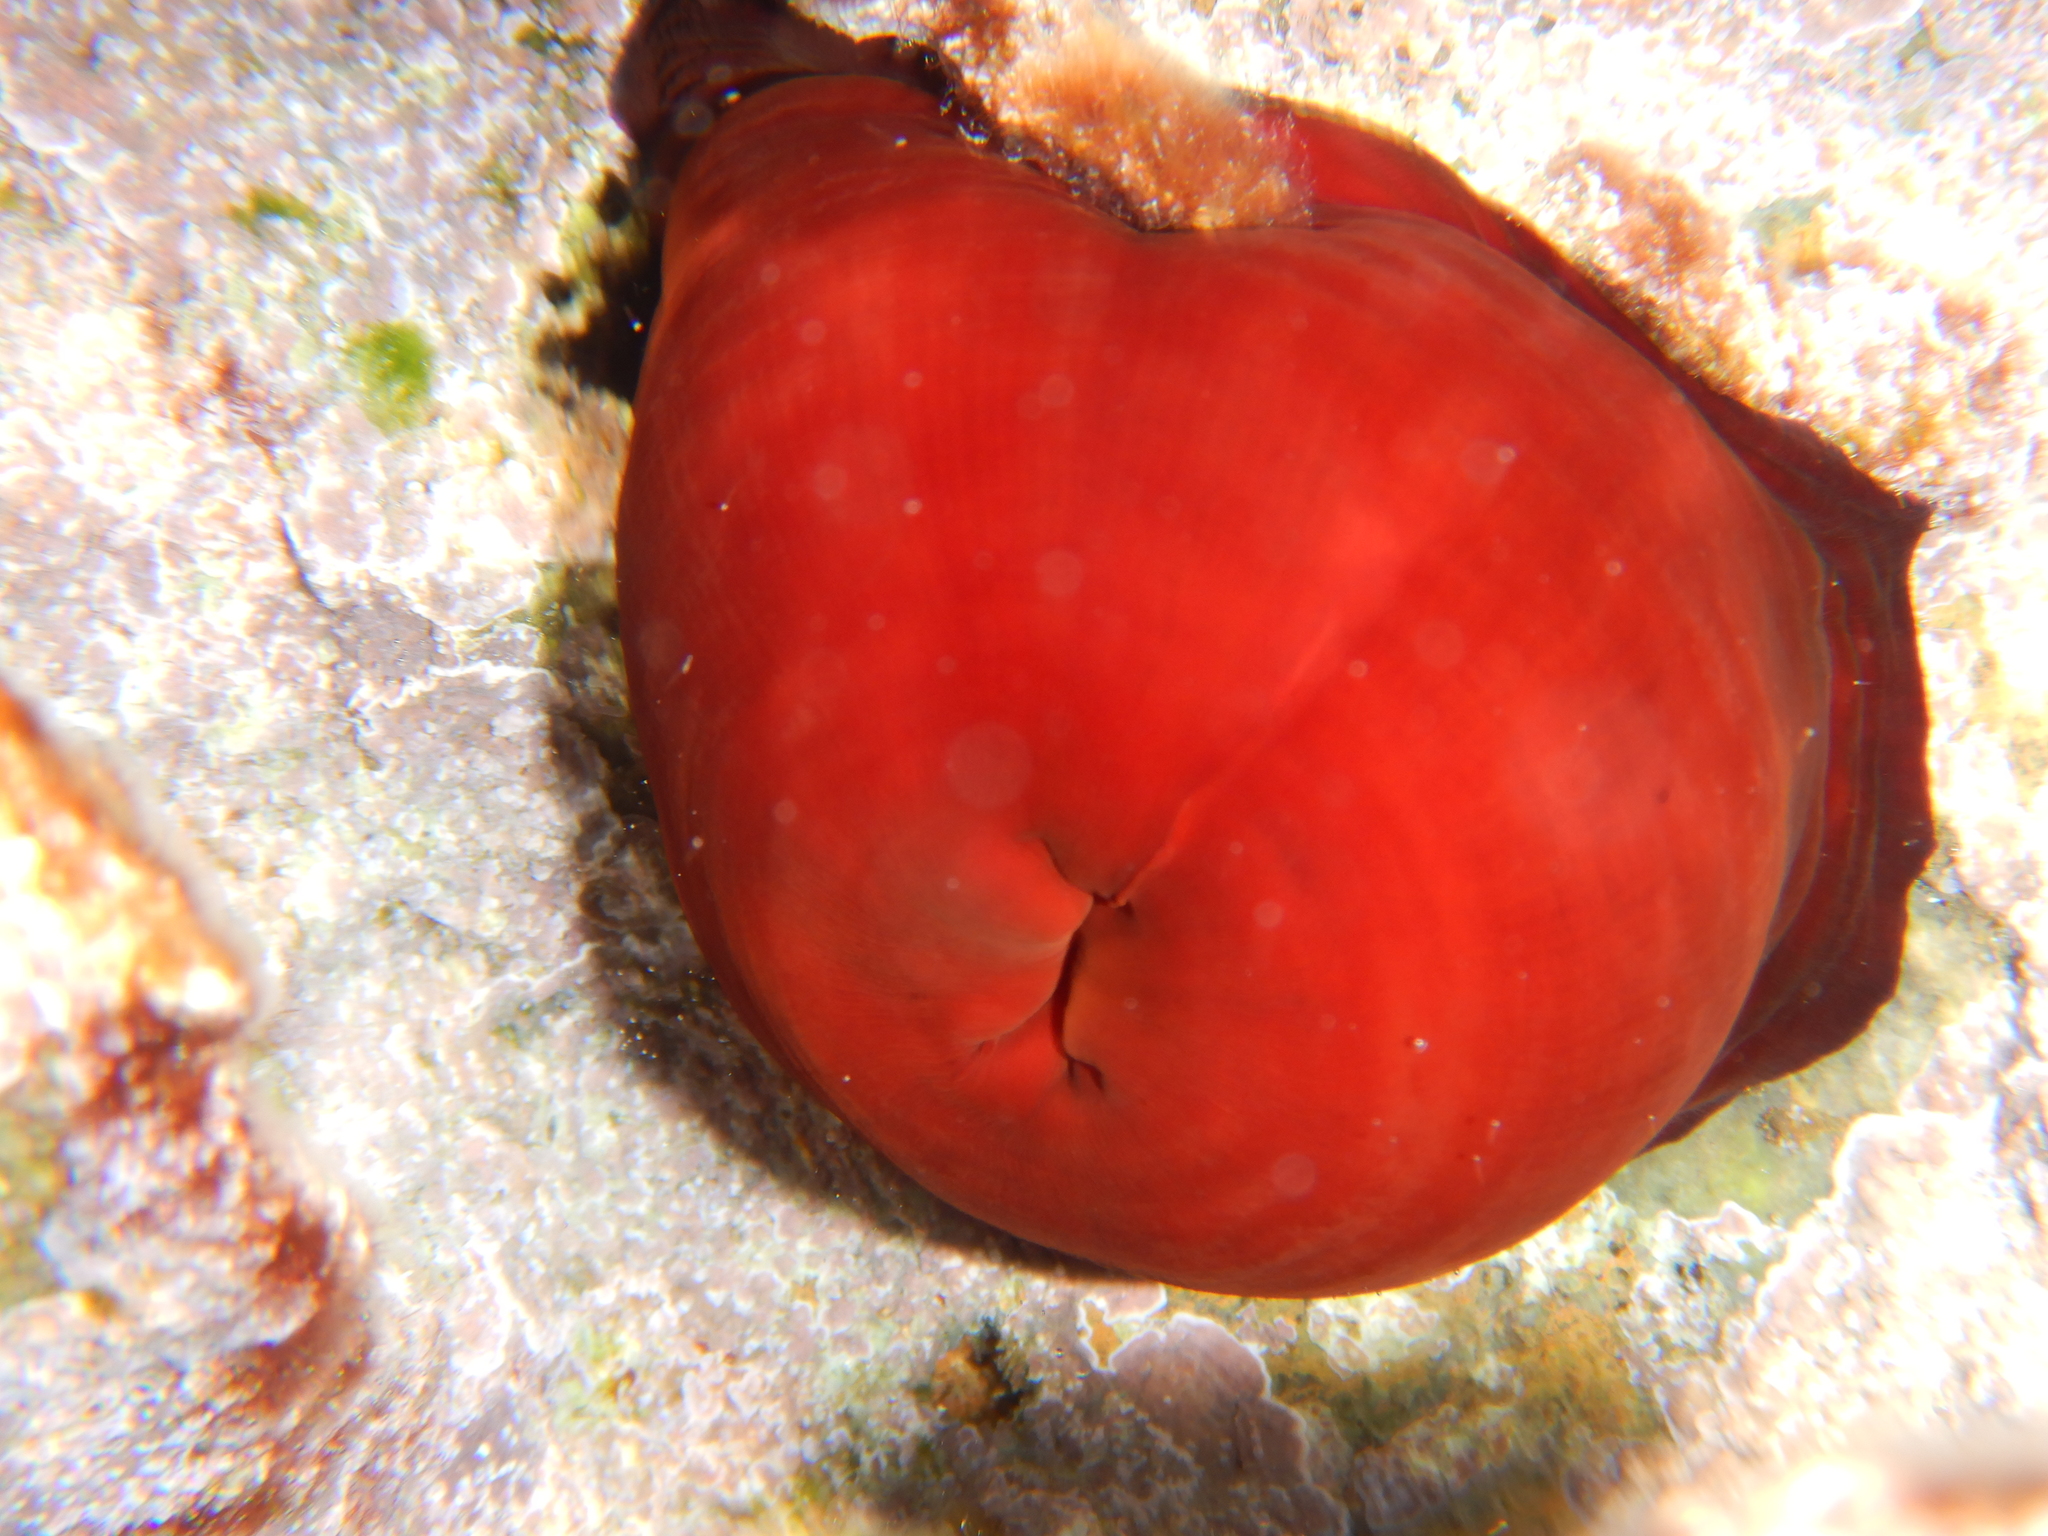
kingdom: Animalia
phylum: Cnidaria
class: Anthozoa
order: Actiniaria
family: Actiniidae
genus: Actinia
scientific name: Actinia mediterranea
